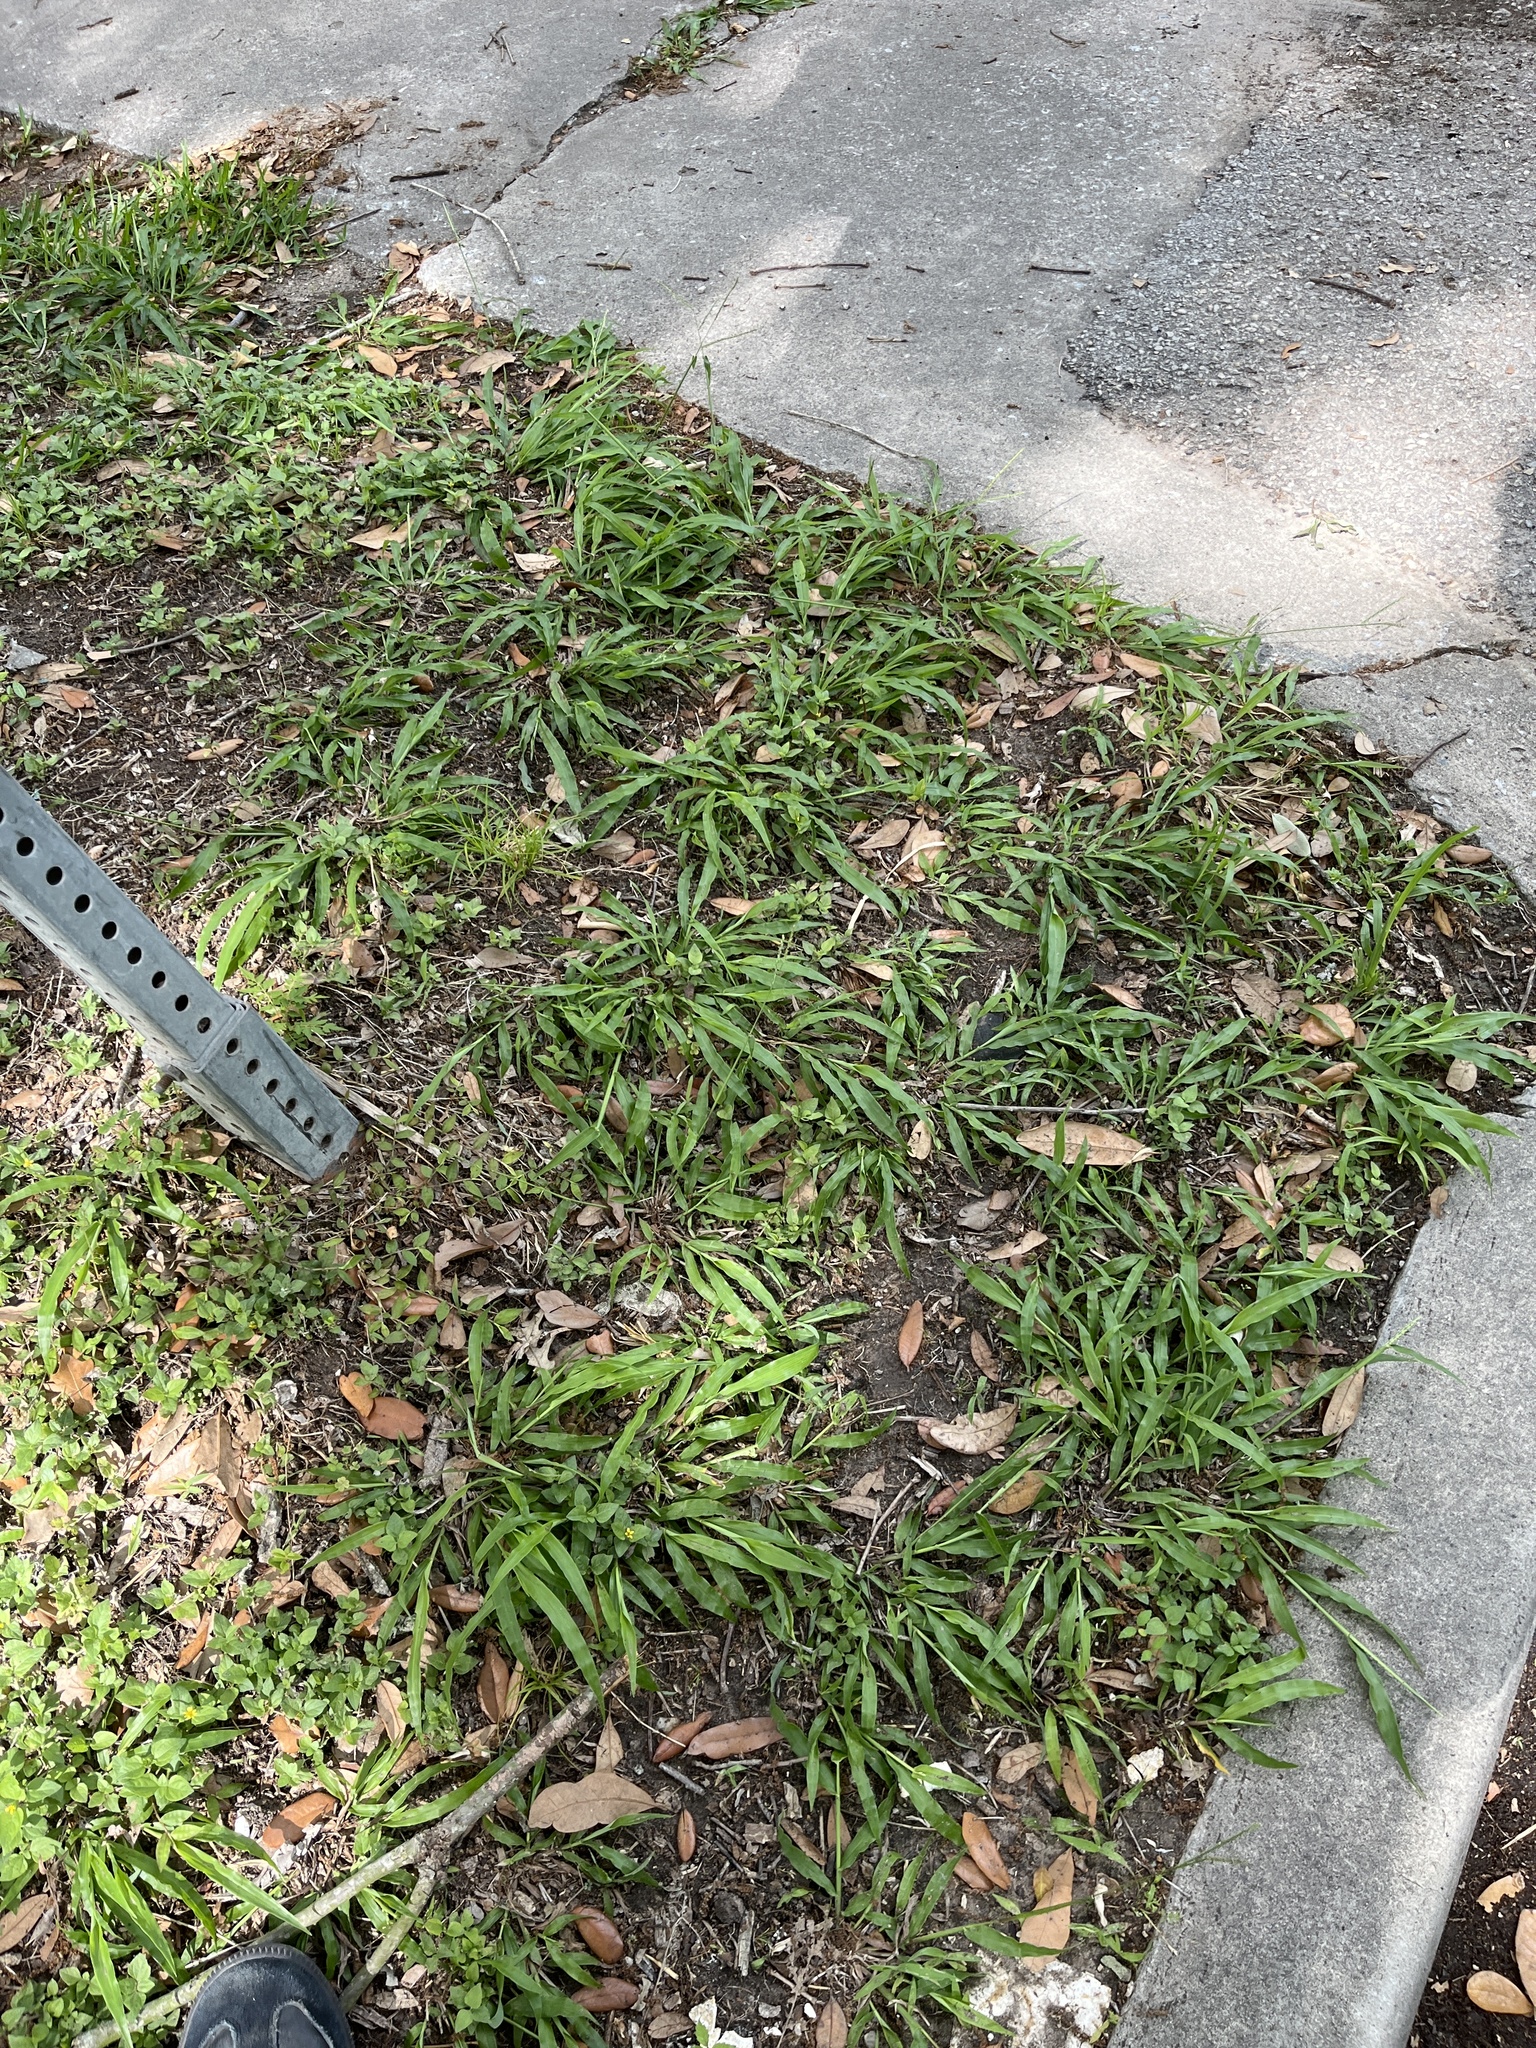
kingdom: Plantae
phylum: Tracheophyta
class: Liliopsida
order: Poales
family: Poaceae
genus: Paspalum
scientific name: Paspalum langei
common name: Rusty-seed paspalum
